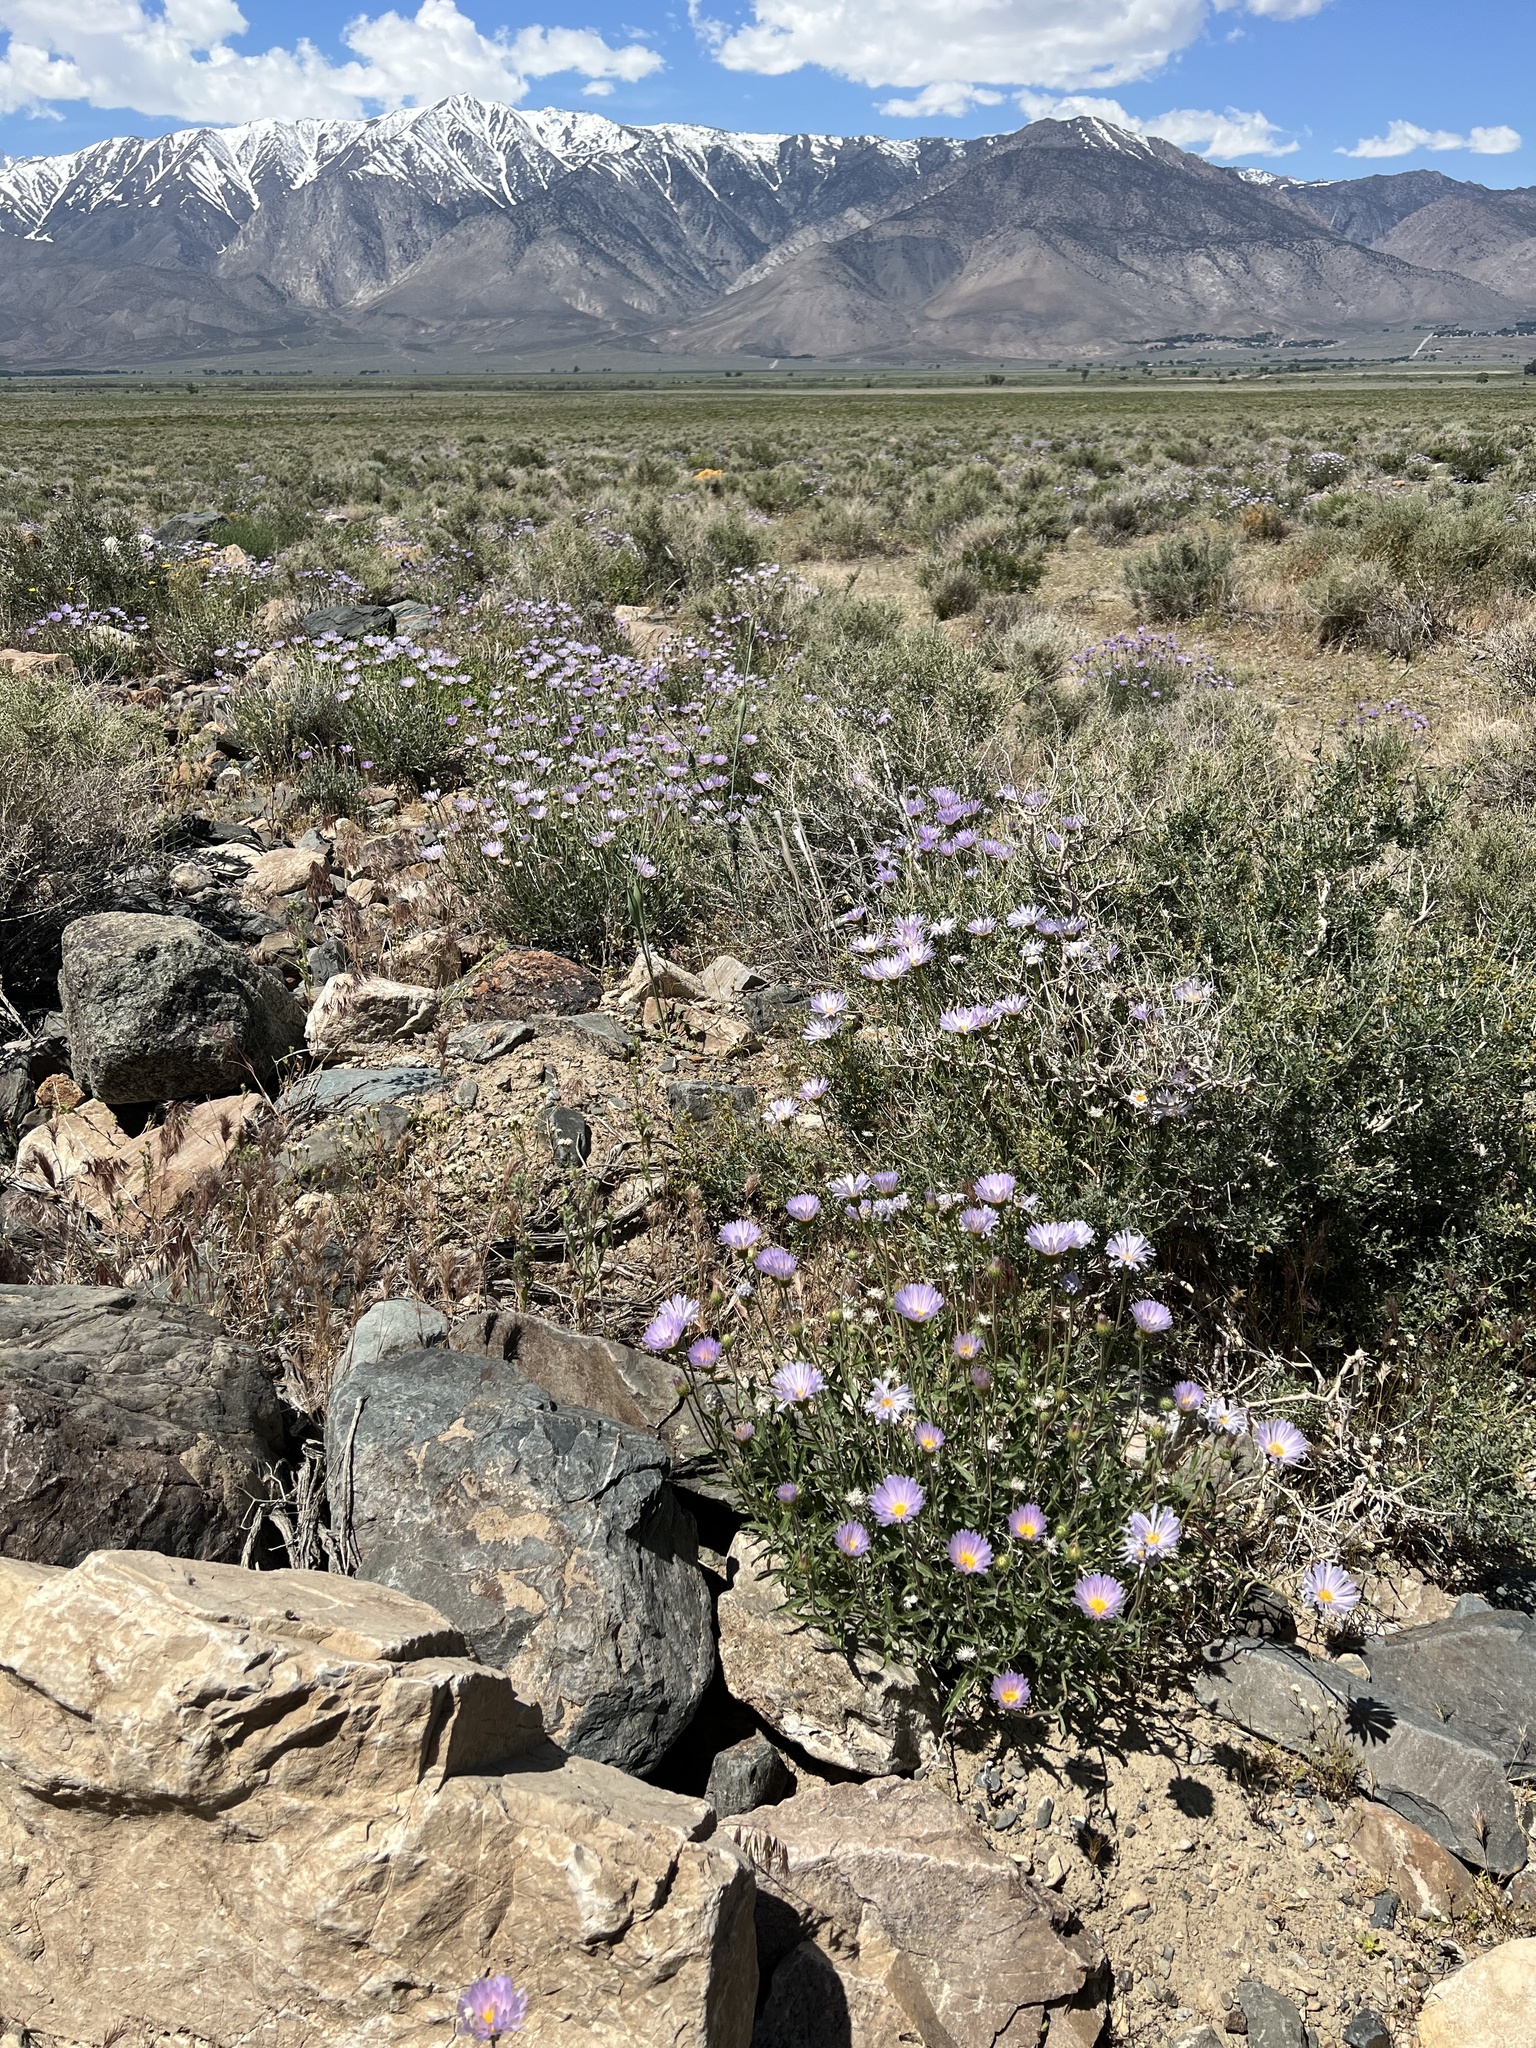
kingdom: Plantae
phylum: Tracheophyta
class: Magnoliopsida
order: Asterales
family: Asteraceae
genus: Xylorhiza
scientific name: Xylorhiza tortifolia
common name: Hurt-leaf woody-aster
